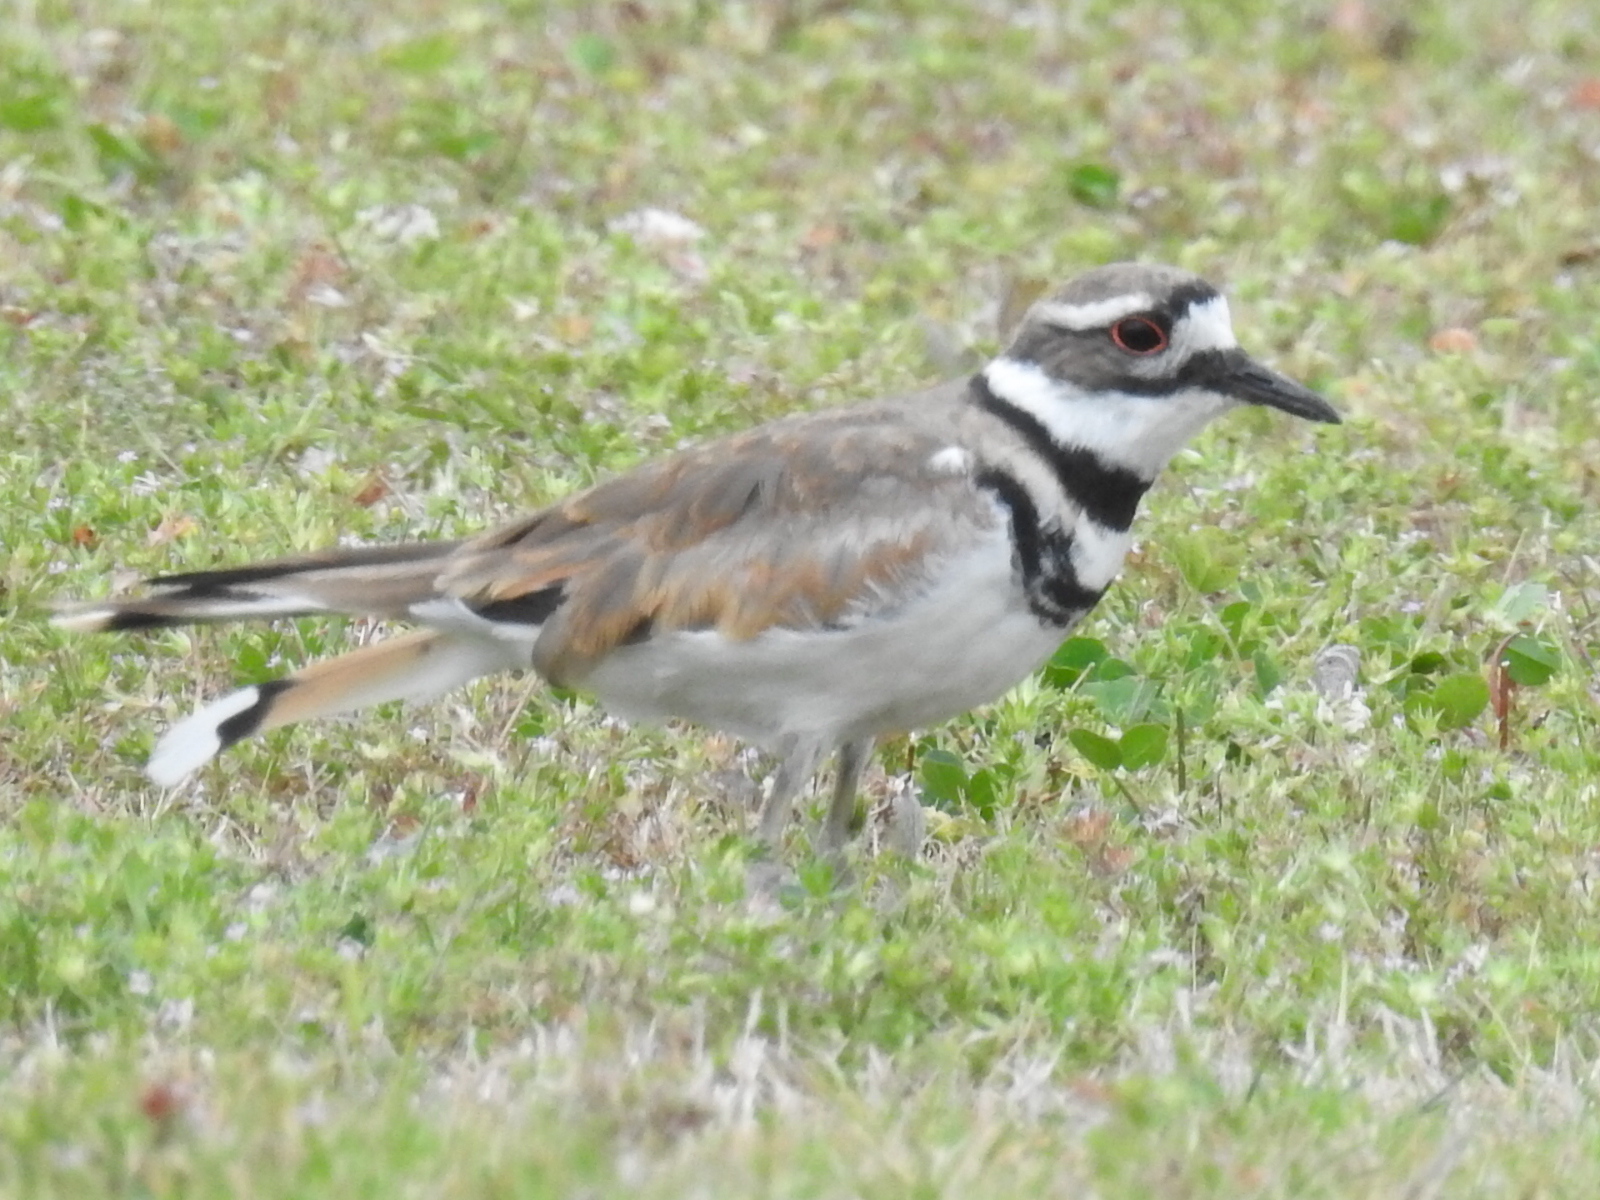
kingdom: Animalia
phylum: Chordata
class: Aves
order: Charadriiformes
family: Charadriidae
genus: Charadrius
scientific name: Charadrius vociferus
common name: Killdeer
